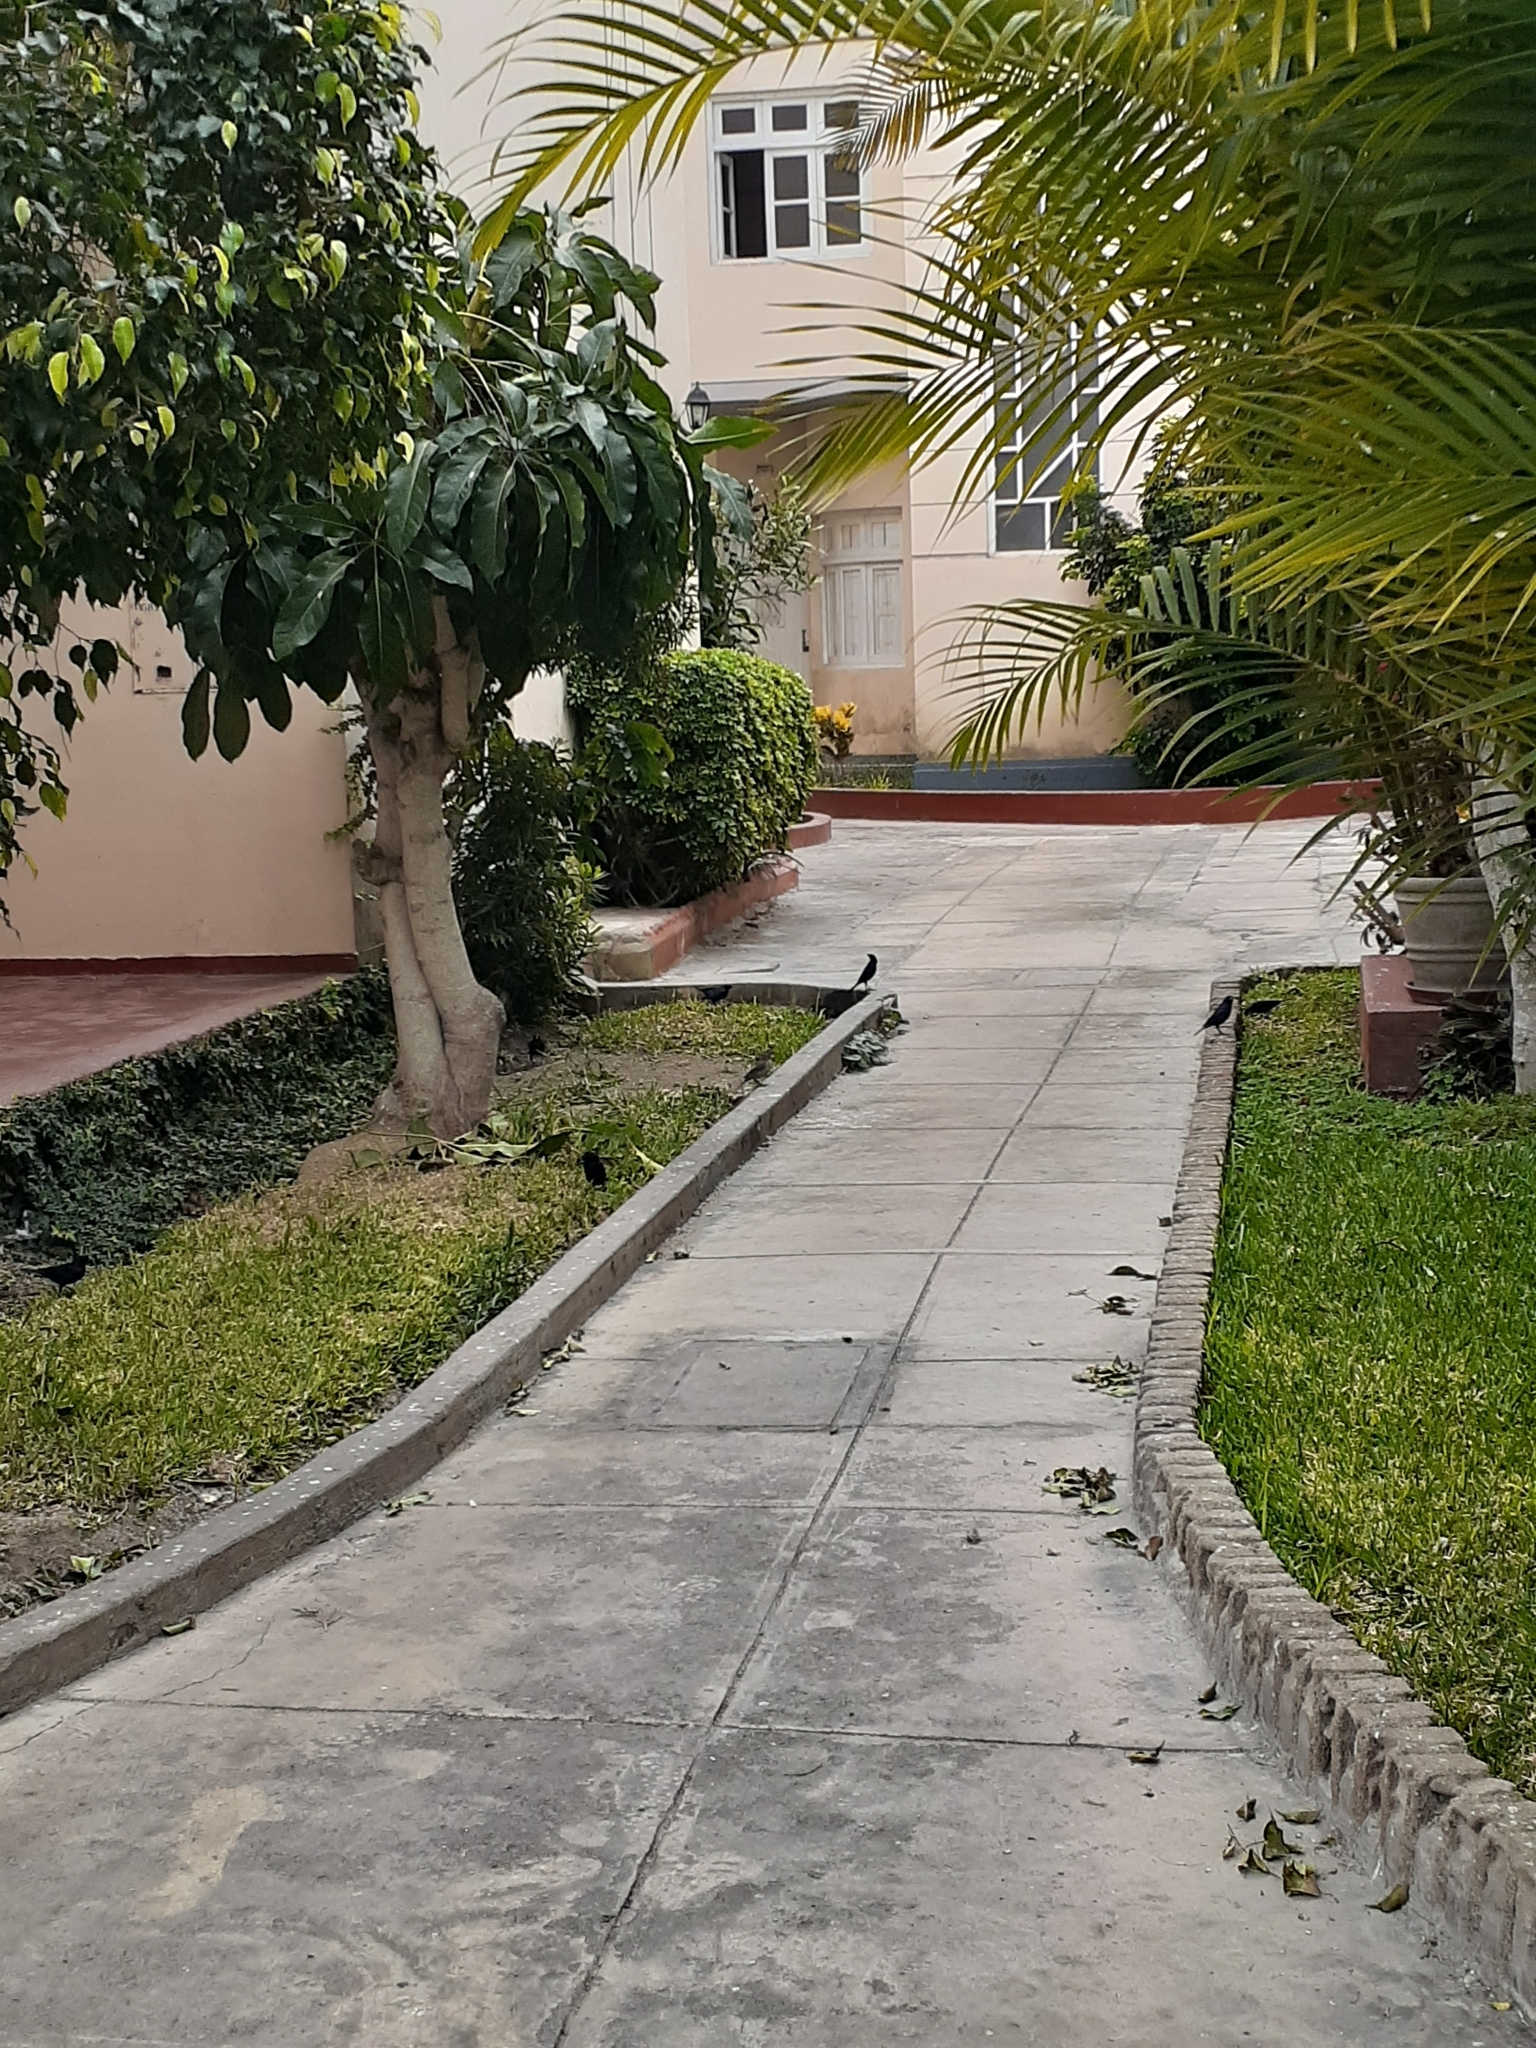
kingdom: Animalia
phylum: Chordata
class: Aves
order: Passeriformes
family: Icteridae
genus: Molothrus
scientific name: Molothrus bonariensis
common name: Shiny cowbird
